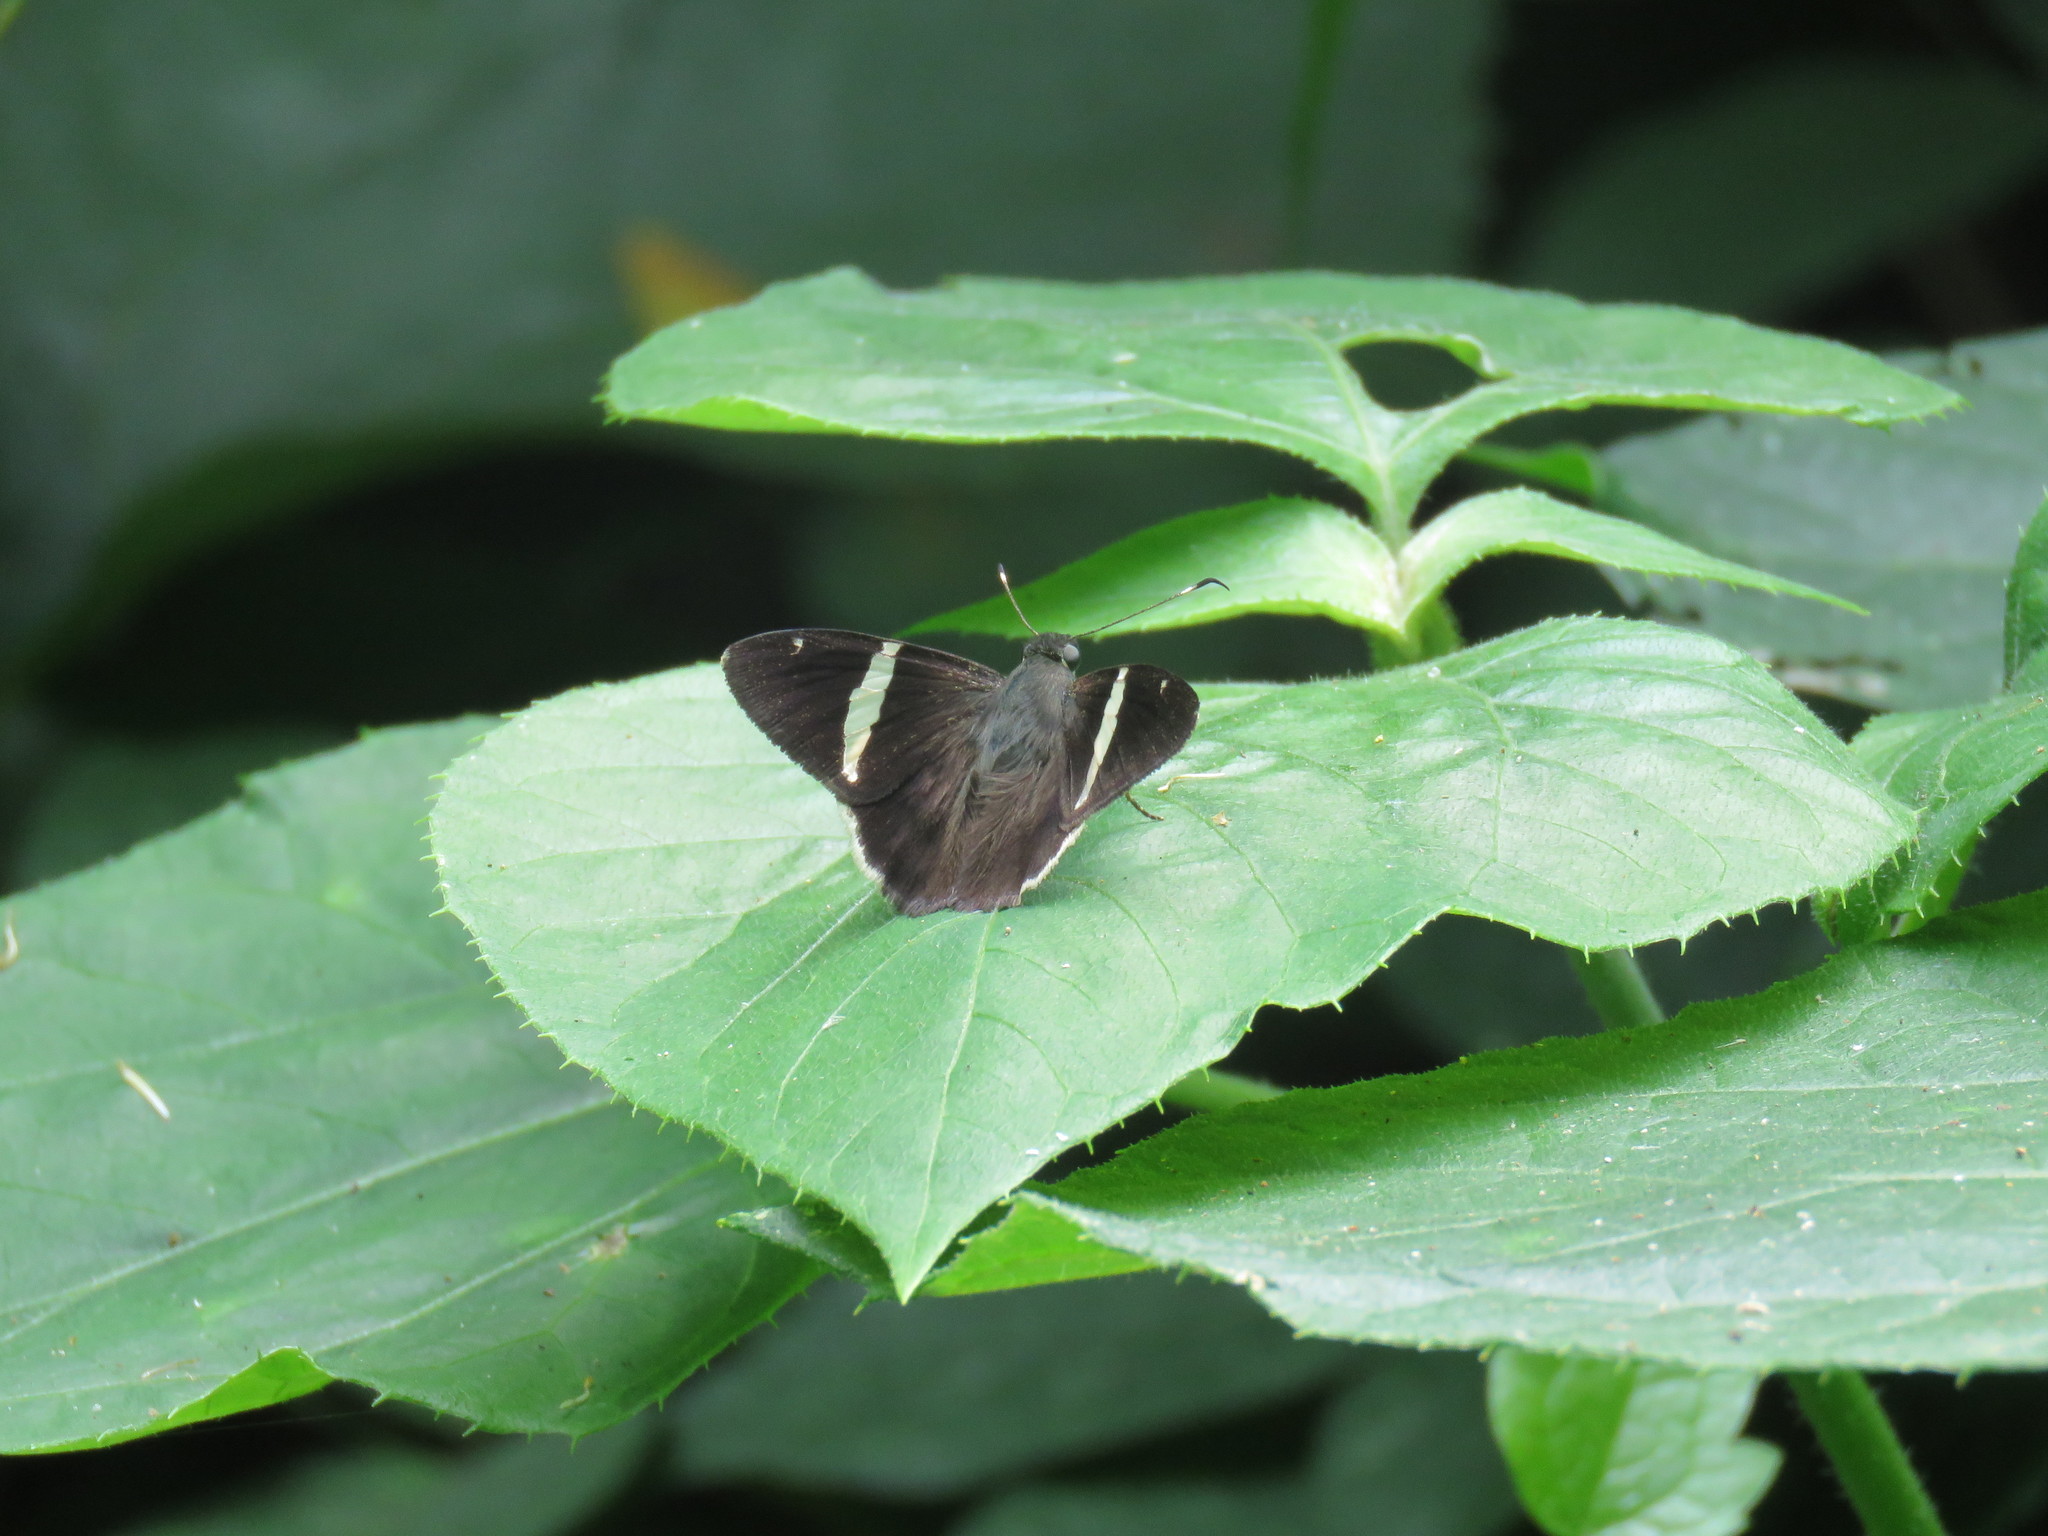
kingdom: Animalia
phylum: Arthropoda
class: Insecta
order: Lepidoptera
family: Hesperiidae
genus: Autochton
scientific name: Autochton zarex
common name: Sharp banded-skipper
